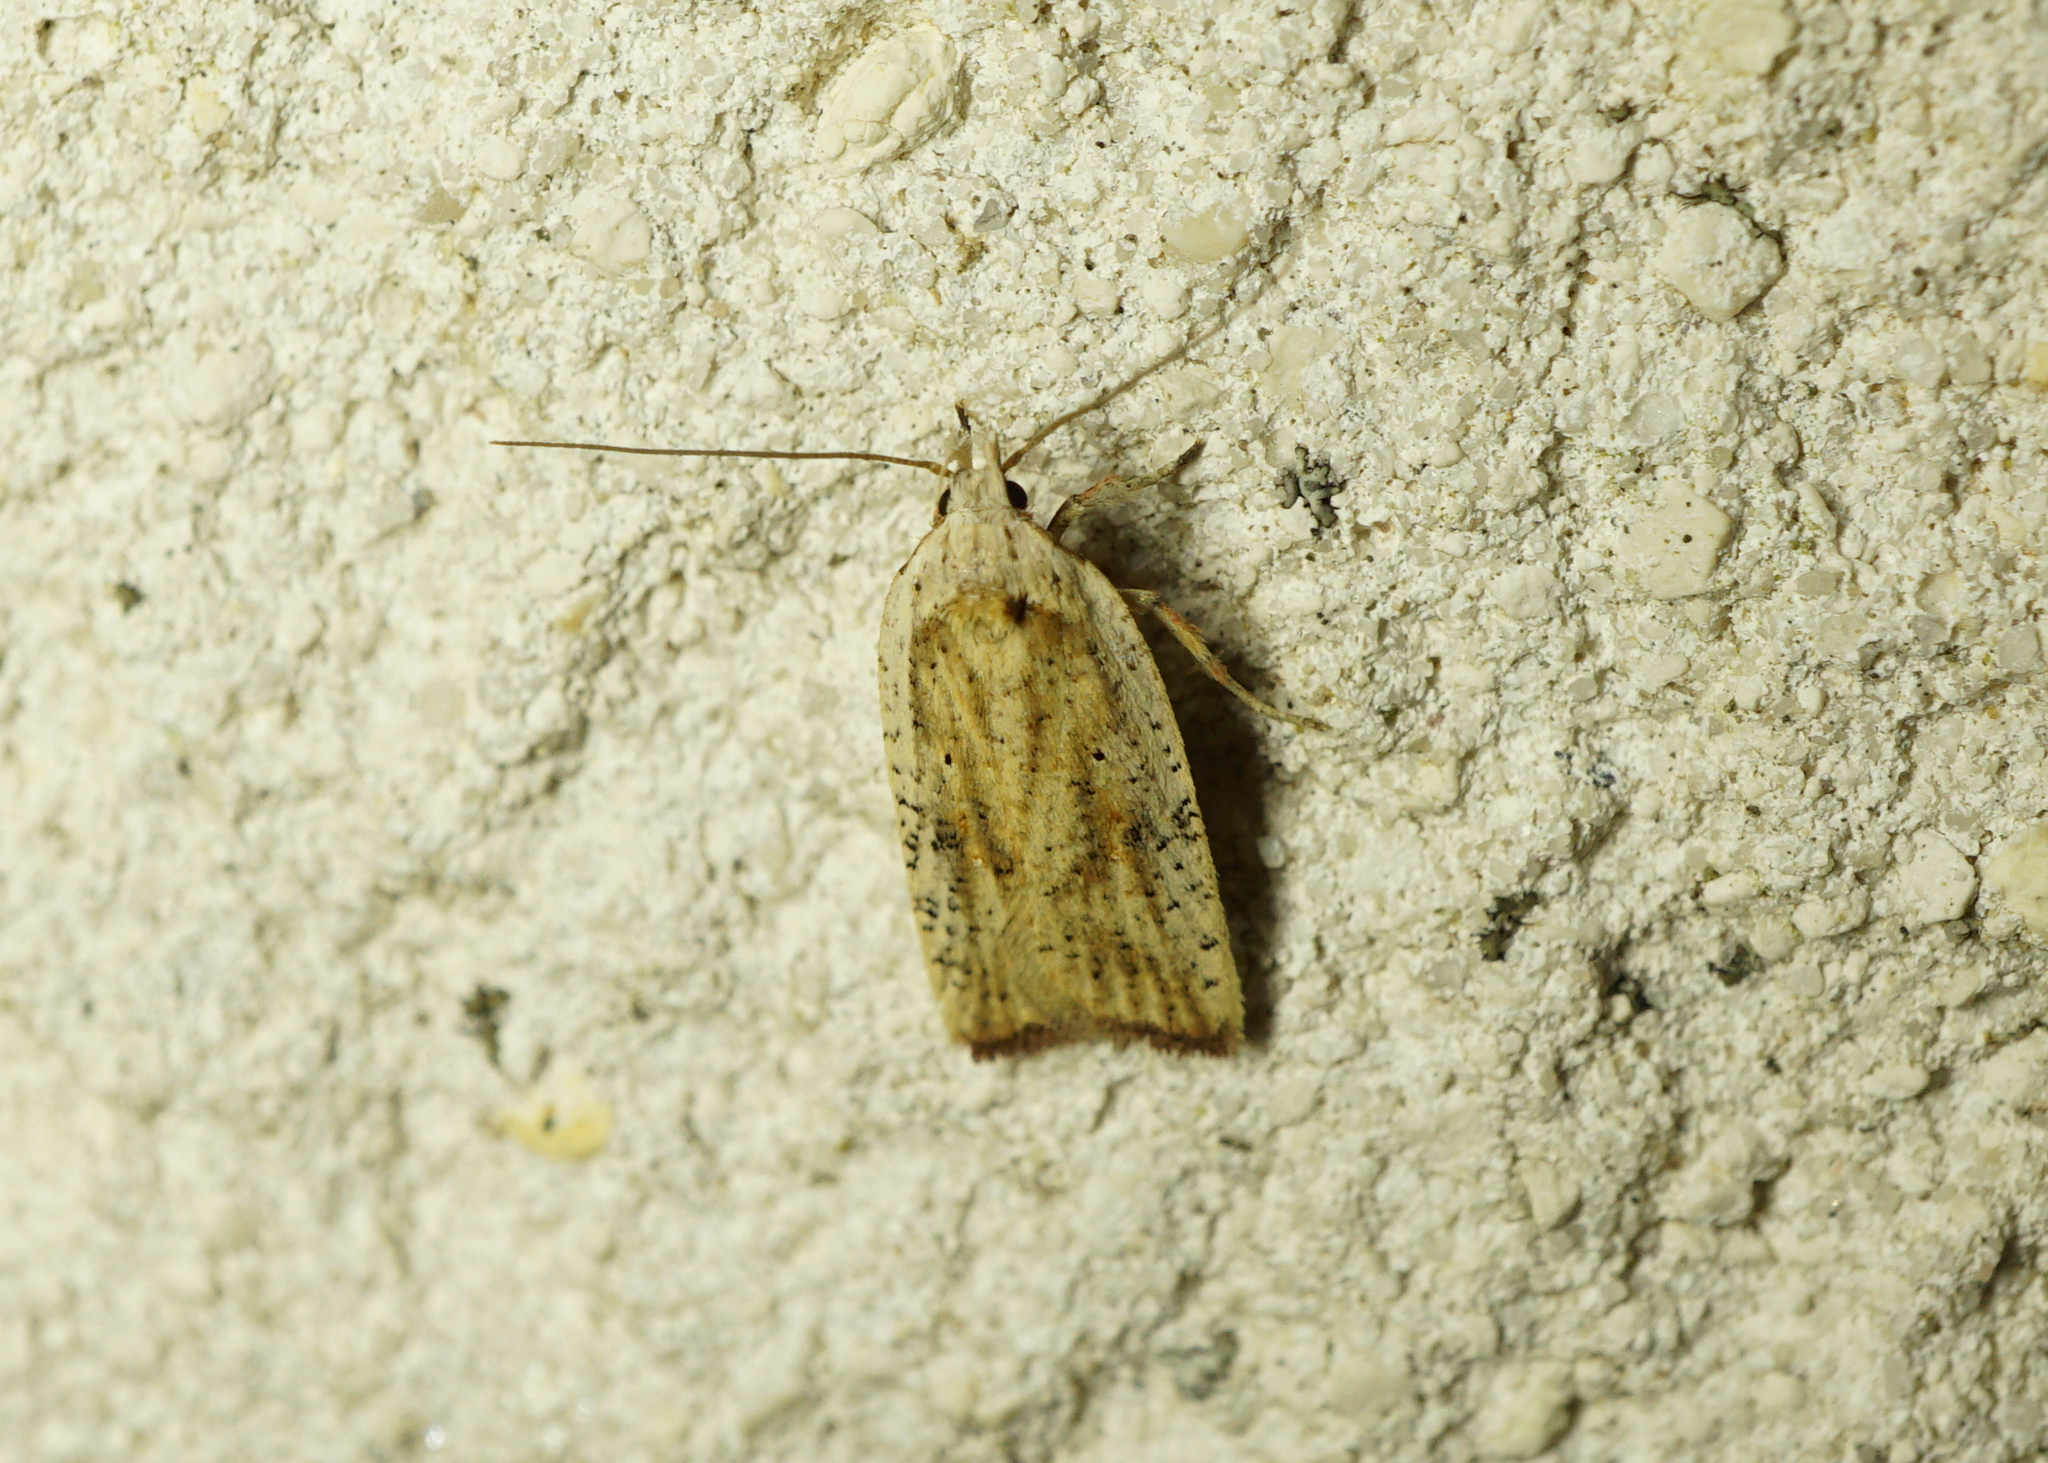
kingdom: Animalia
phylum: Arthropoda
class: Insecta
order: Lepidoptera
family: Depressariidae
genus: Agonopterix
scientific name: Agonopterix nervosa
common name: Gorse tip moth
